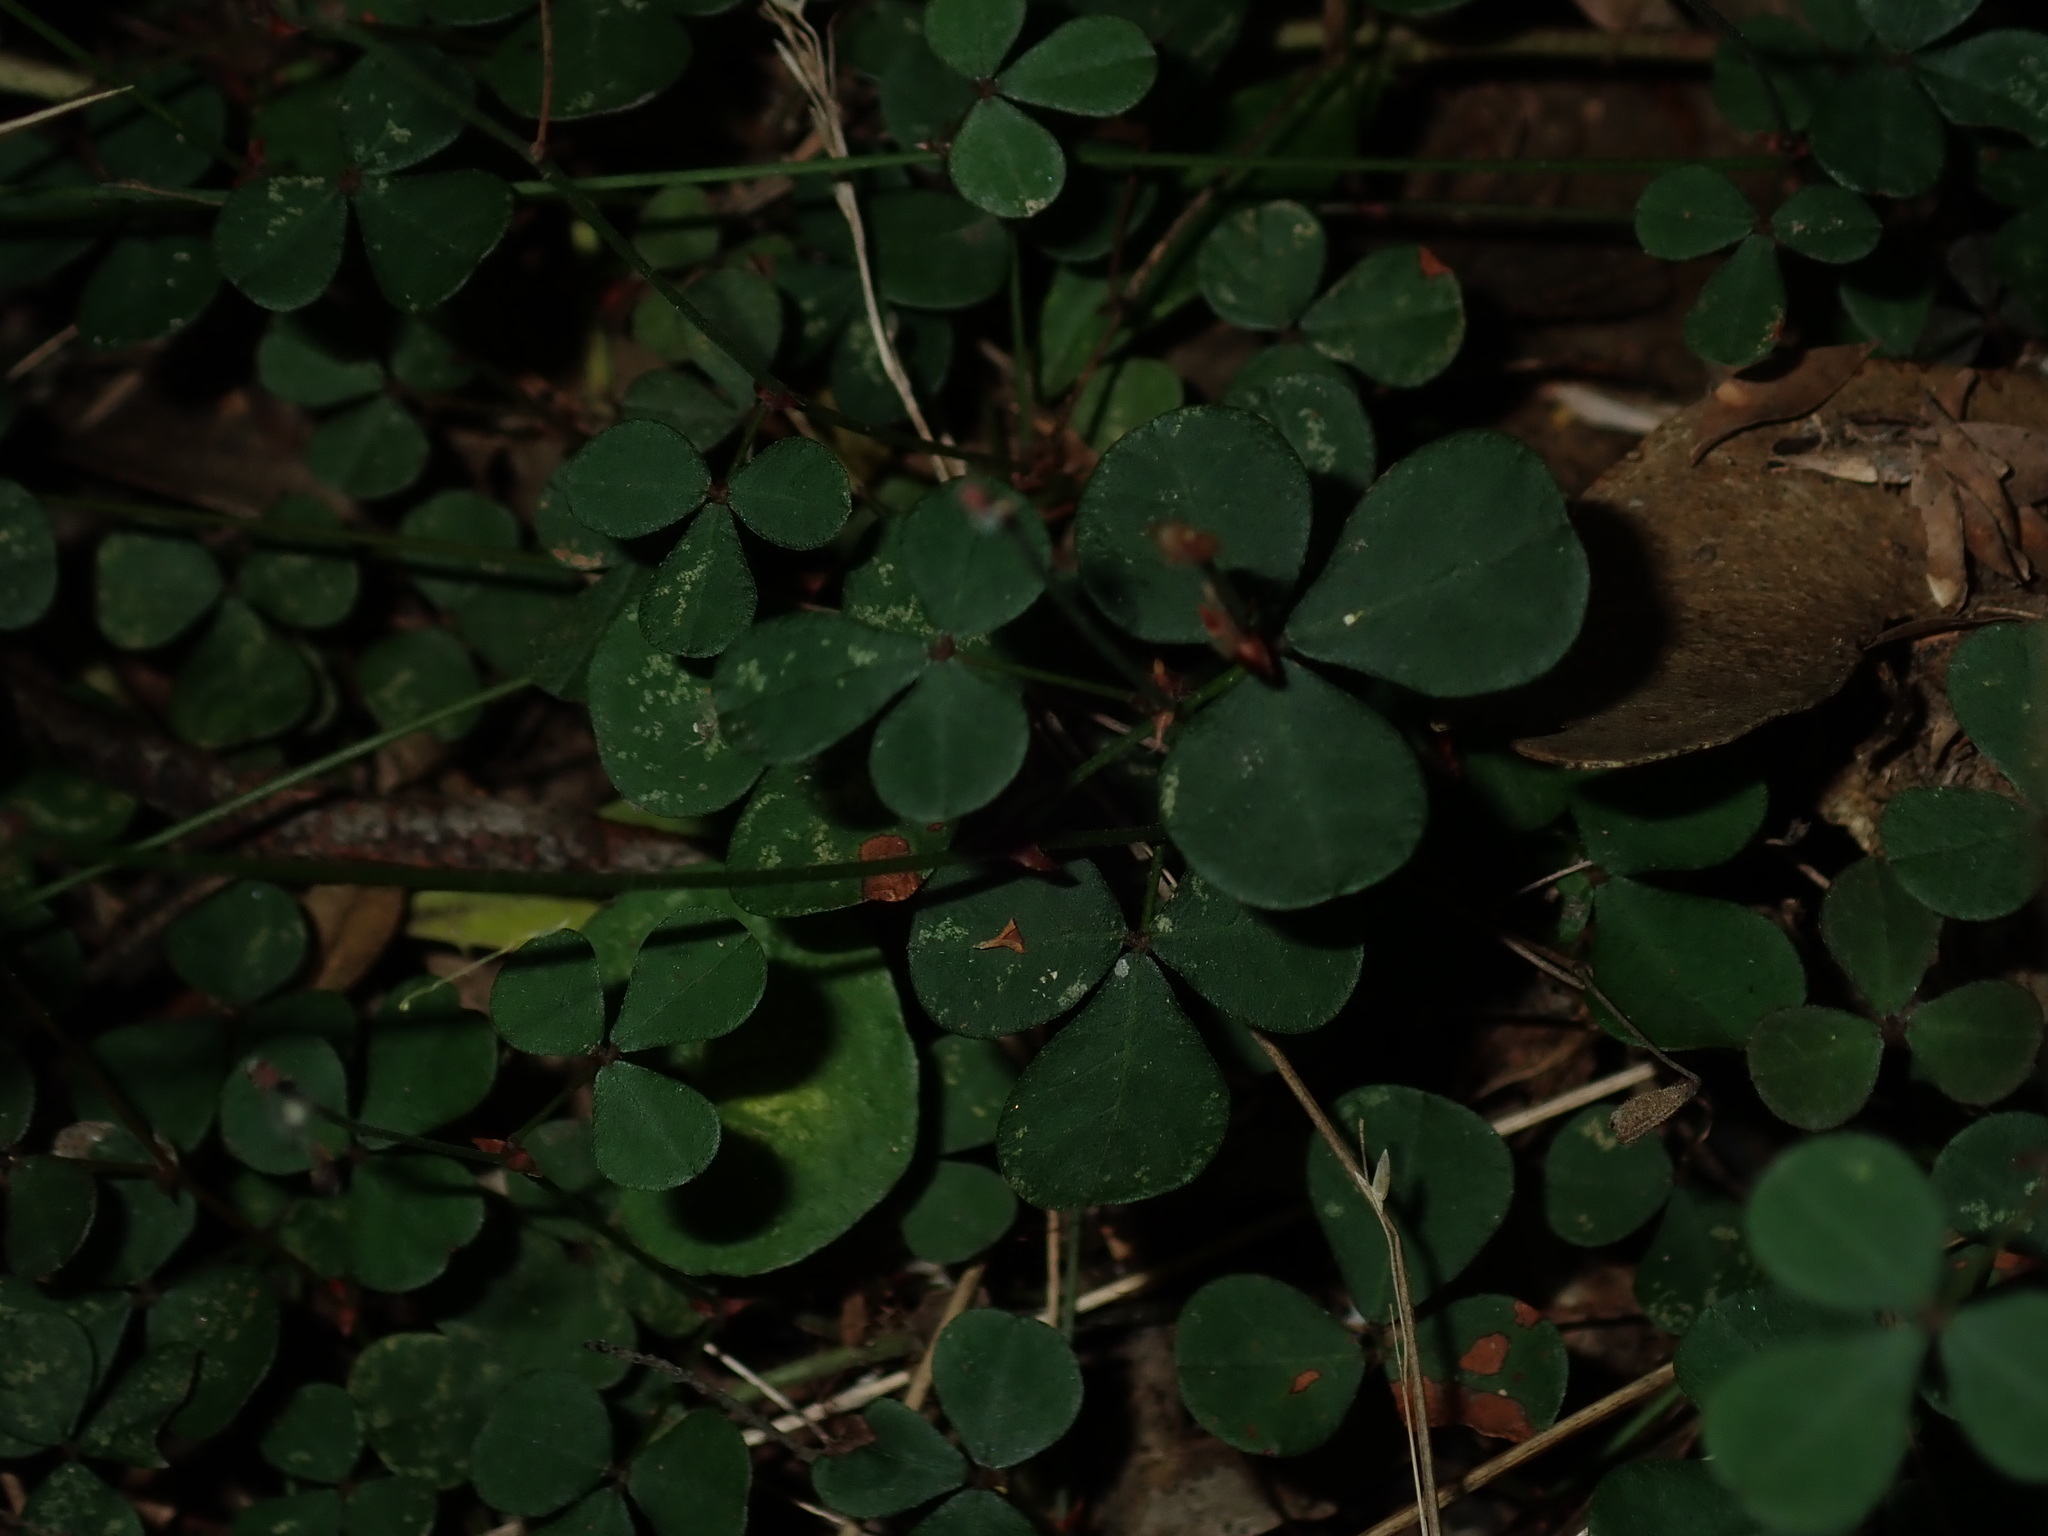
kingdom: Plantae
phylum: Tracheophyta
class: Magnoliopsida
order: Fabales
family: Fabaceae
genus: Pullenia
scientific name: Pullenia gunnii
